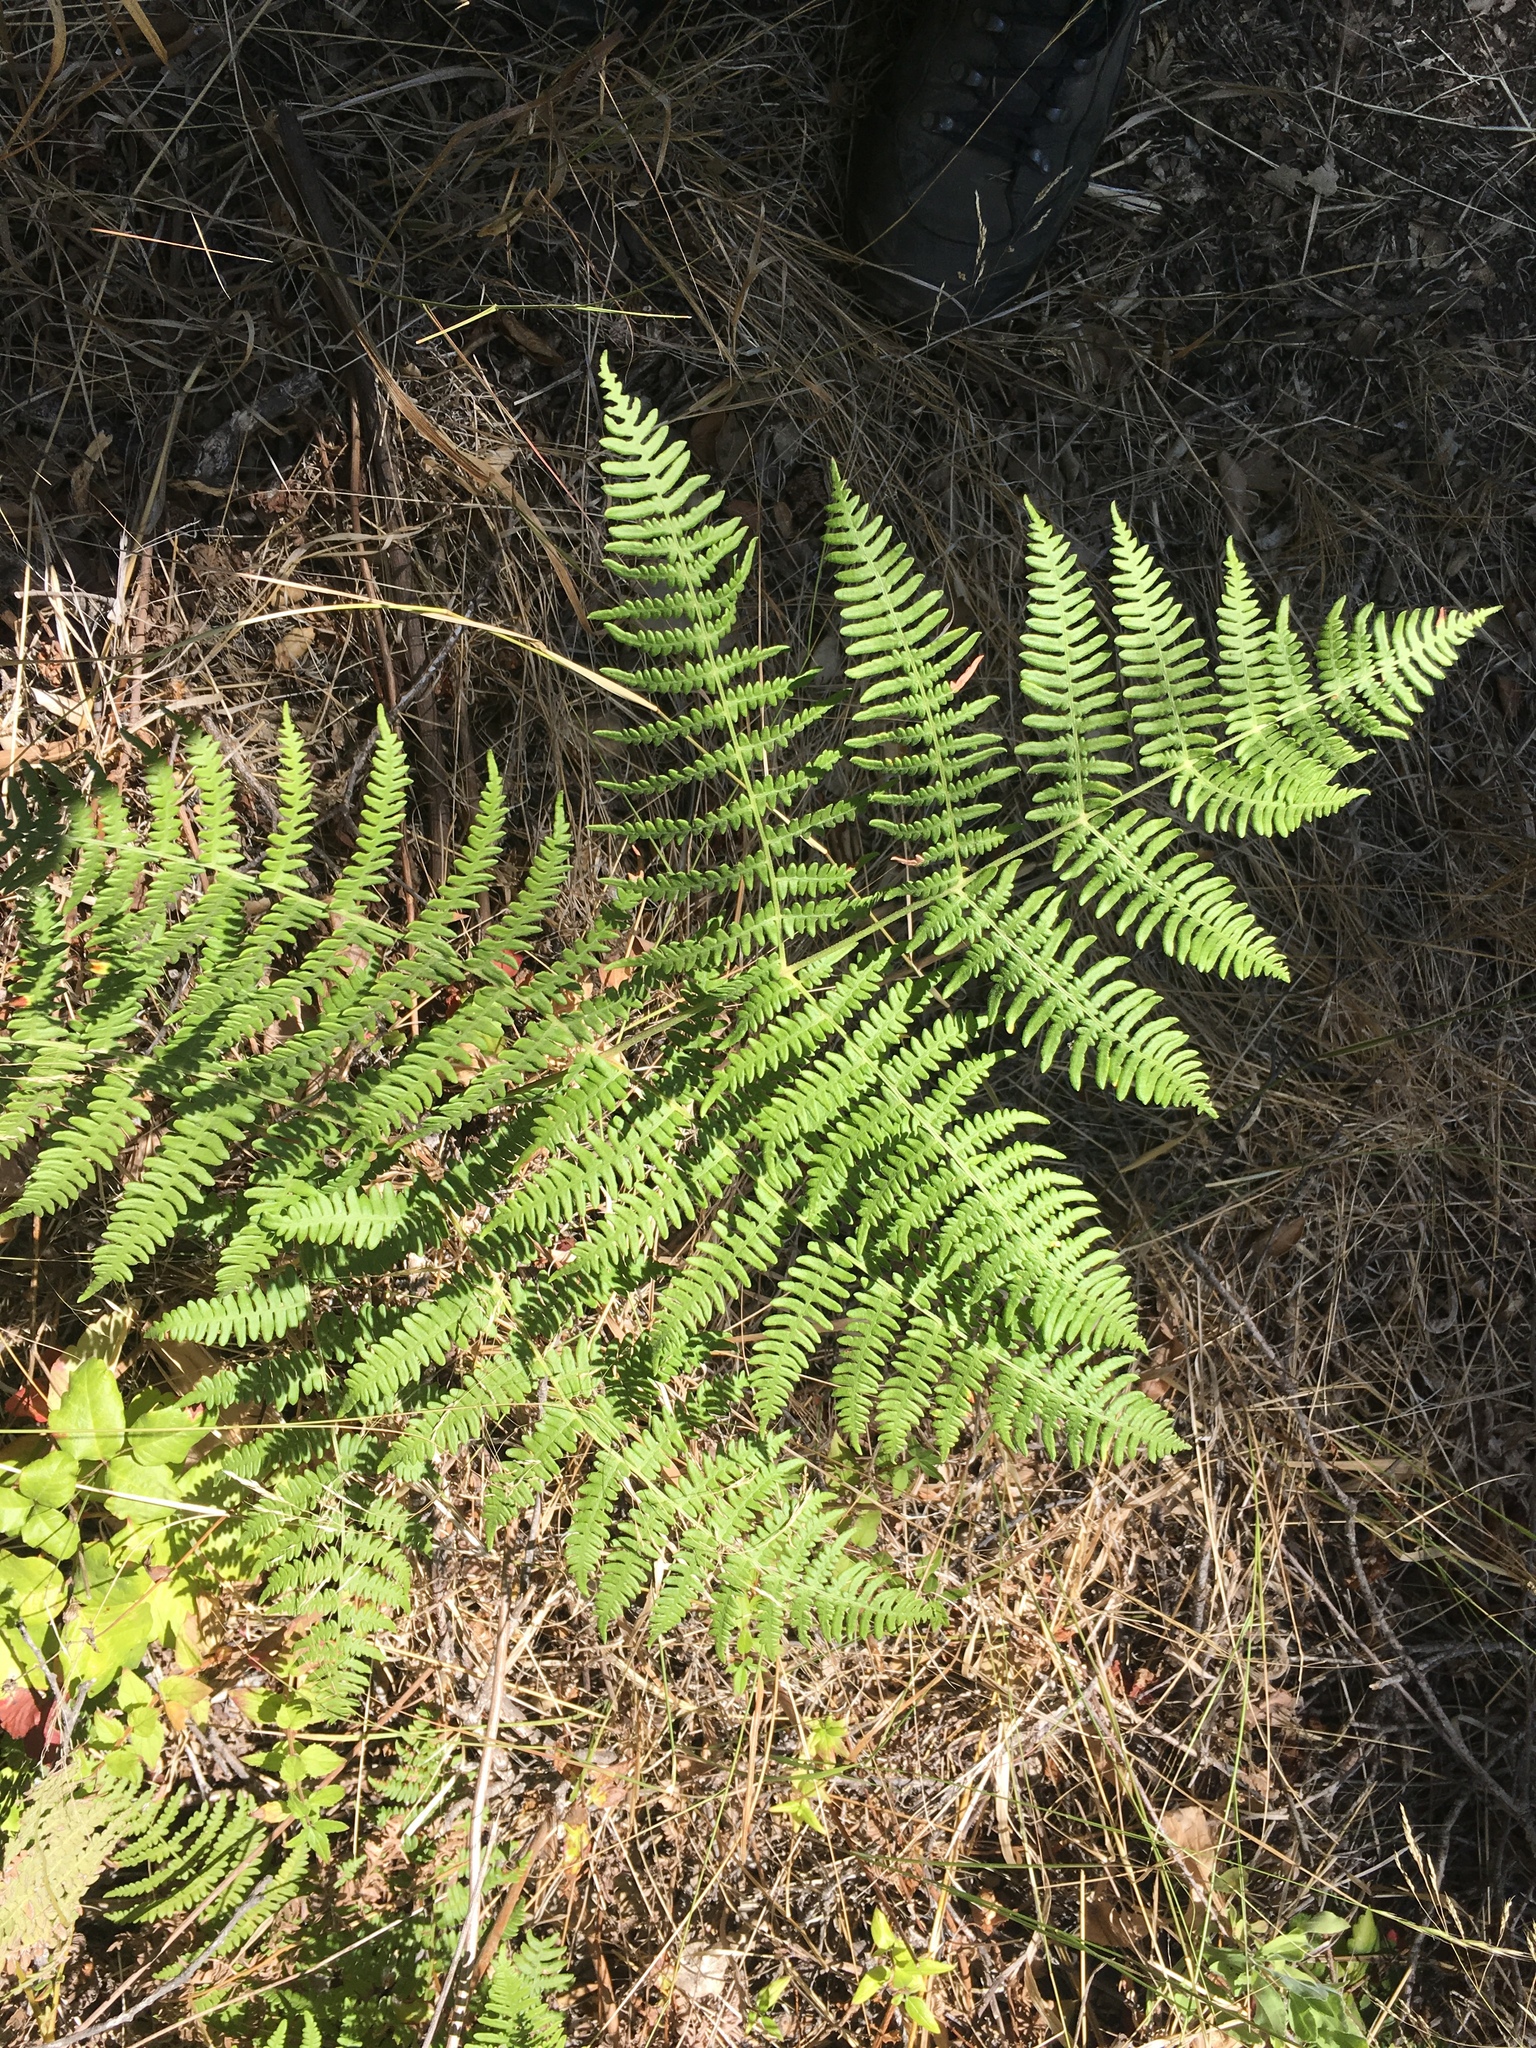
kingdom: Plantae
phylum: Tracheophyta
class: Polypodiopsida
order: Polypodiales
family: Dennstaedtiaceae
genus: Pteridium
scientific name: Pteridium aquilinum
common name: Bracken
